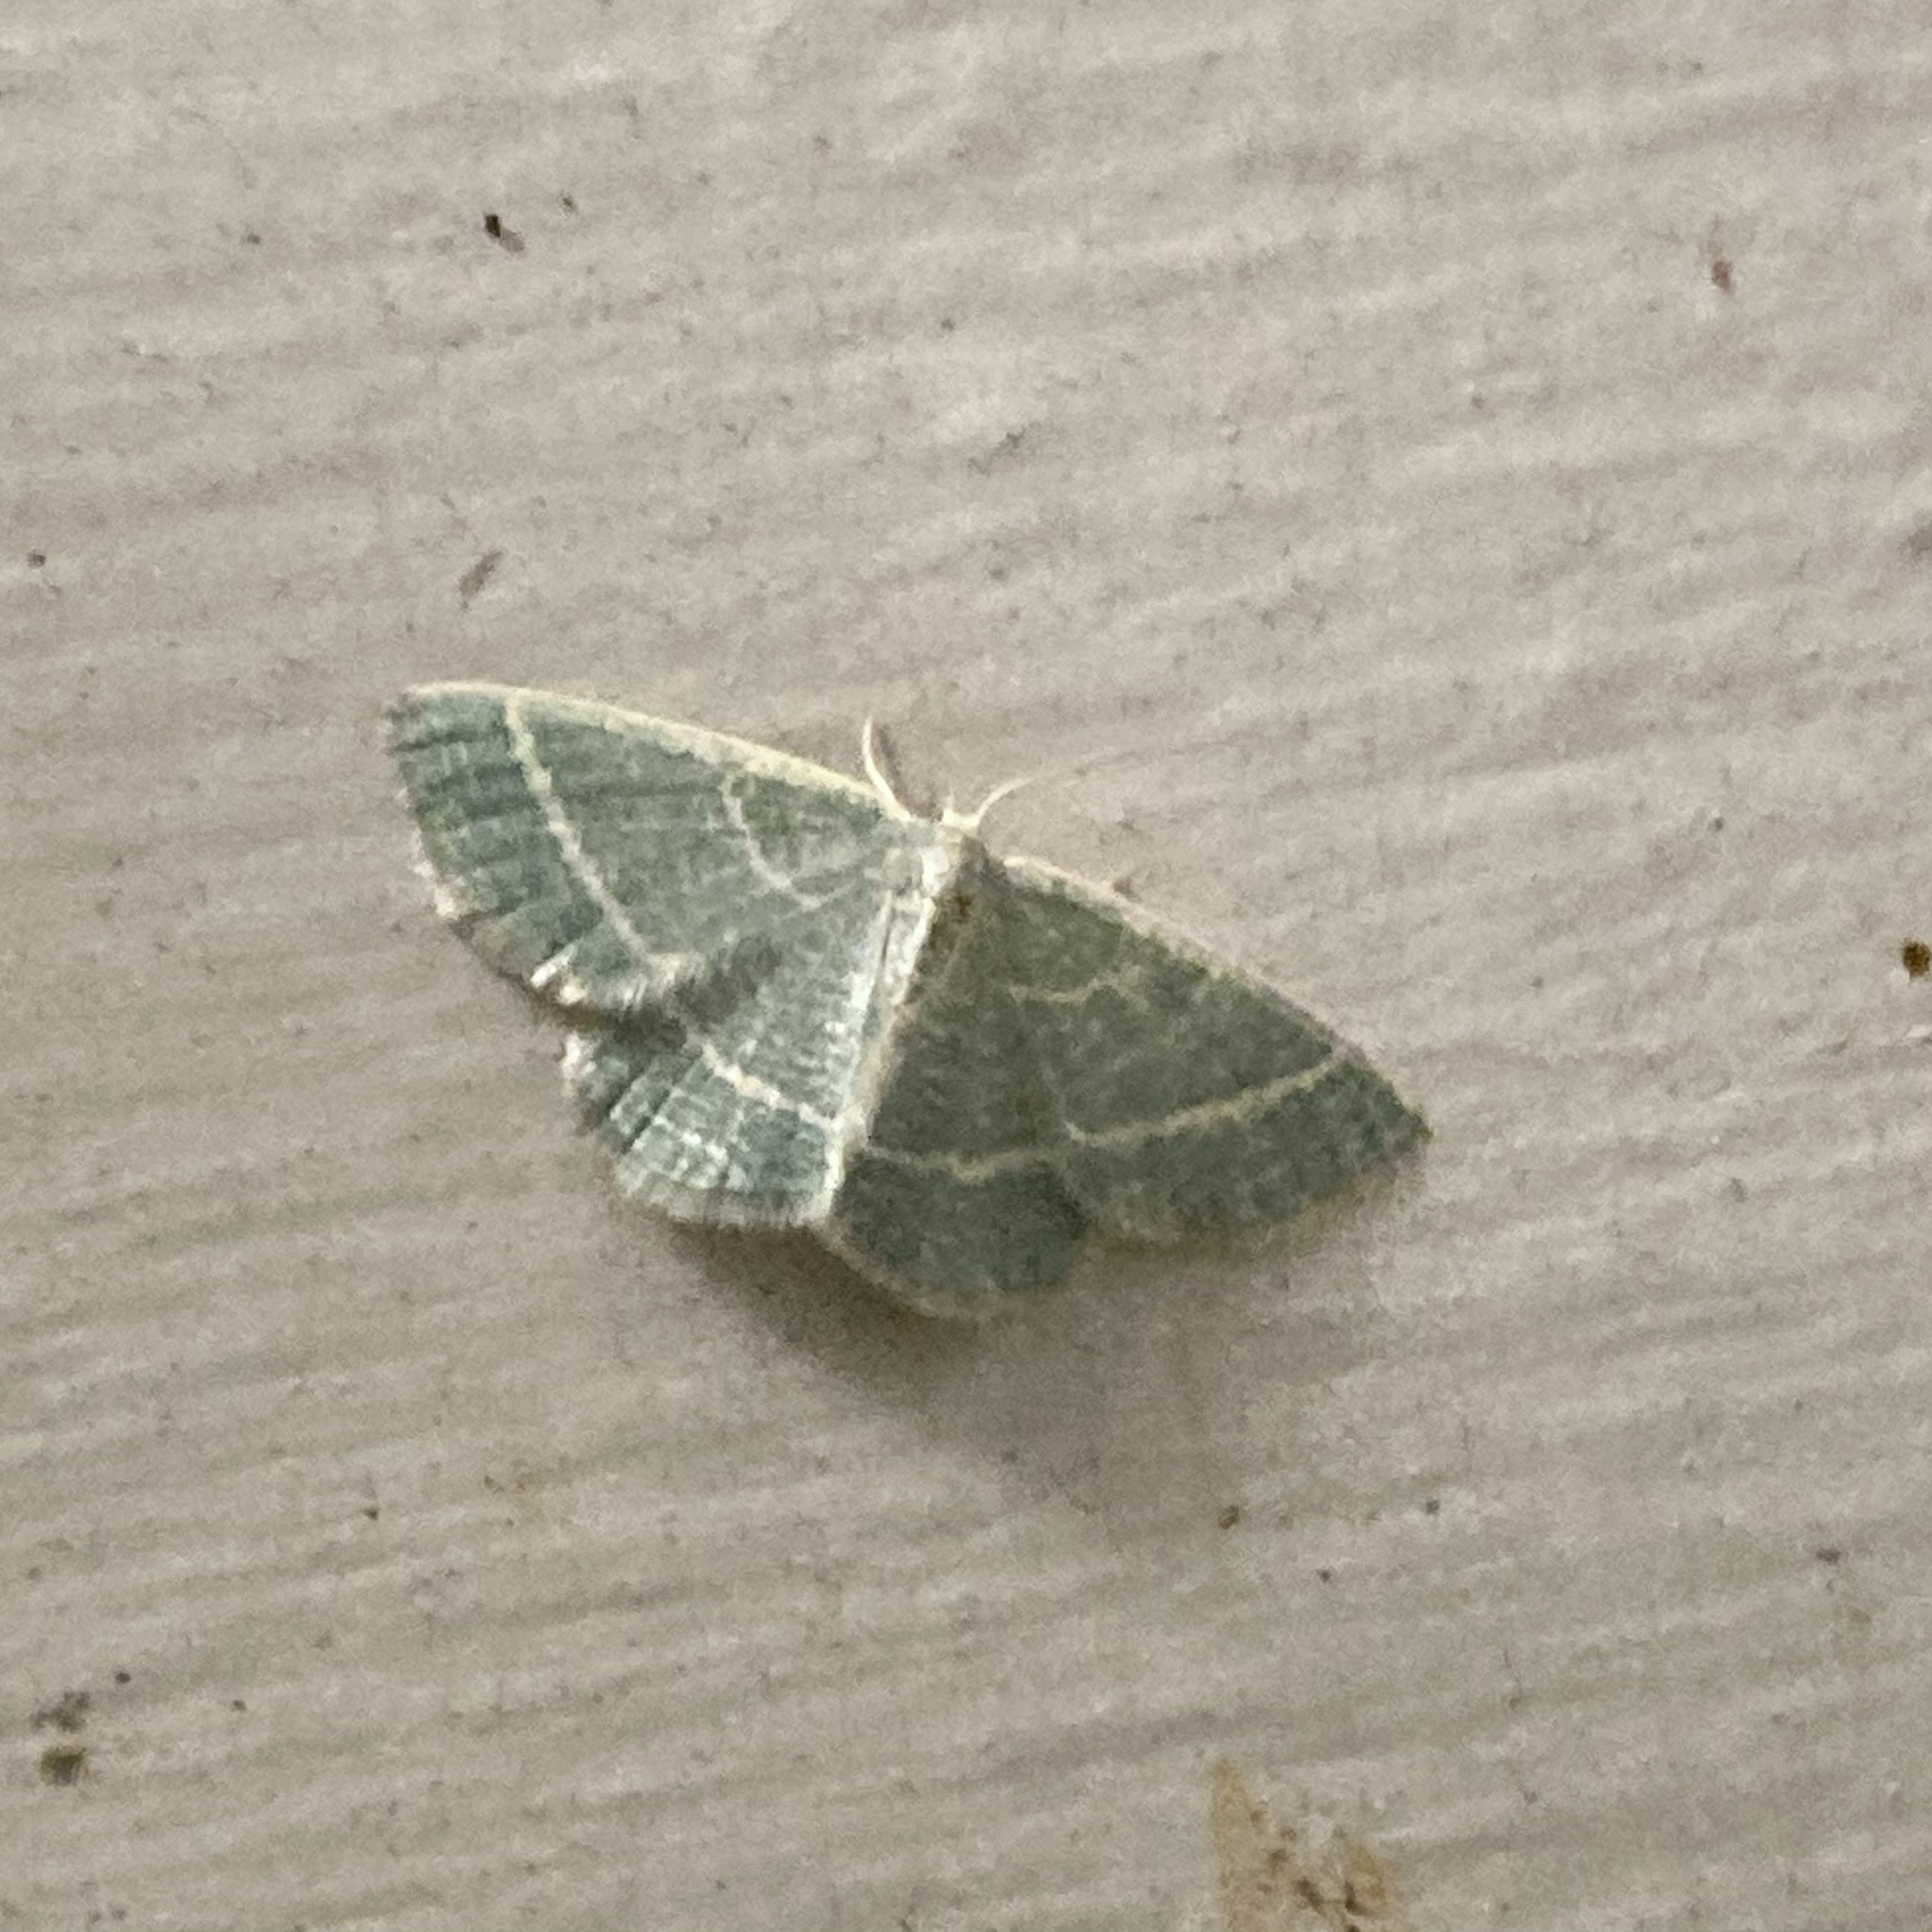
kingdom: Animalia
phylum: Arthropoda
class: Insecta
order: Lepidoptera
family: Geometridae
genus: Chlorochlamys
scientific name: Chlorochlamys chloroleucaria
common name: Blackberry looper
